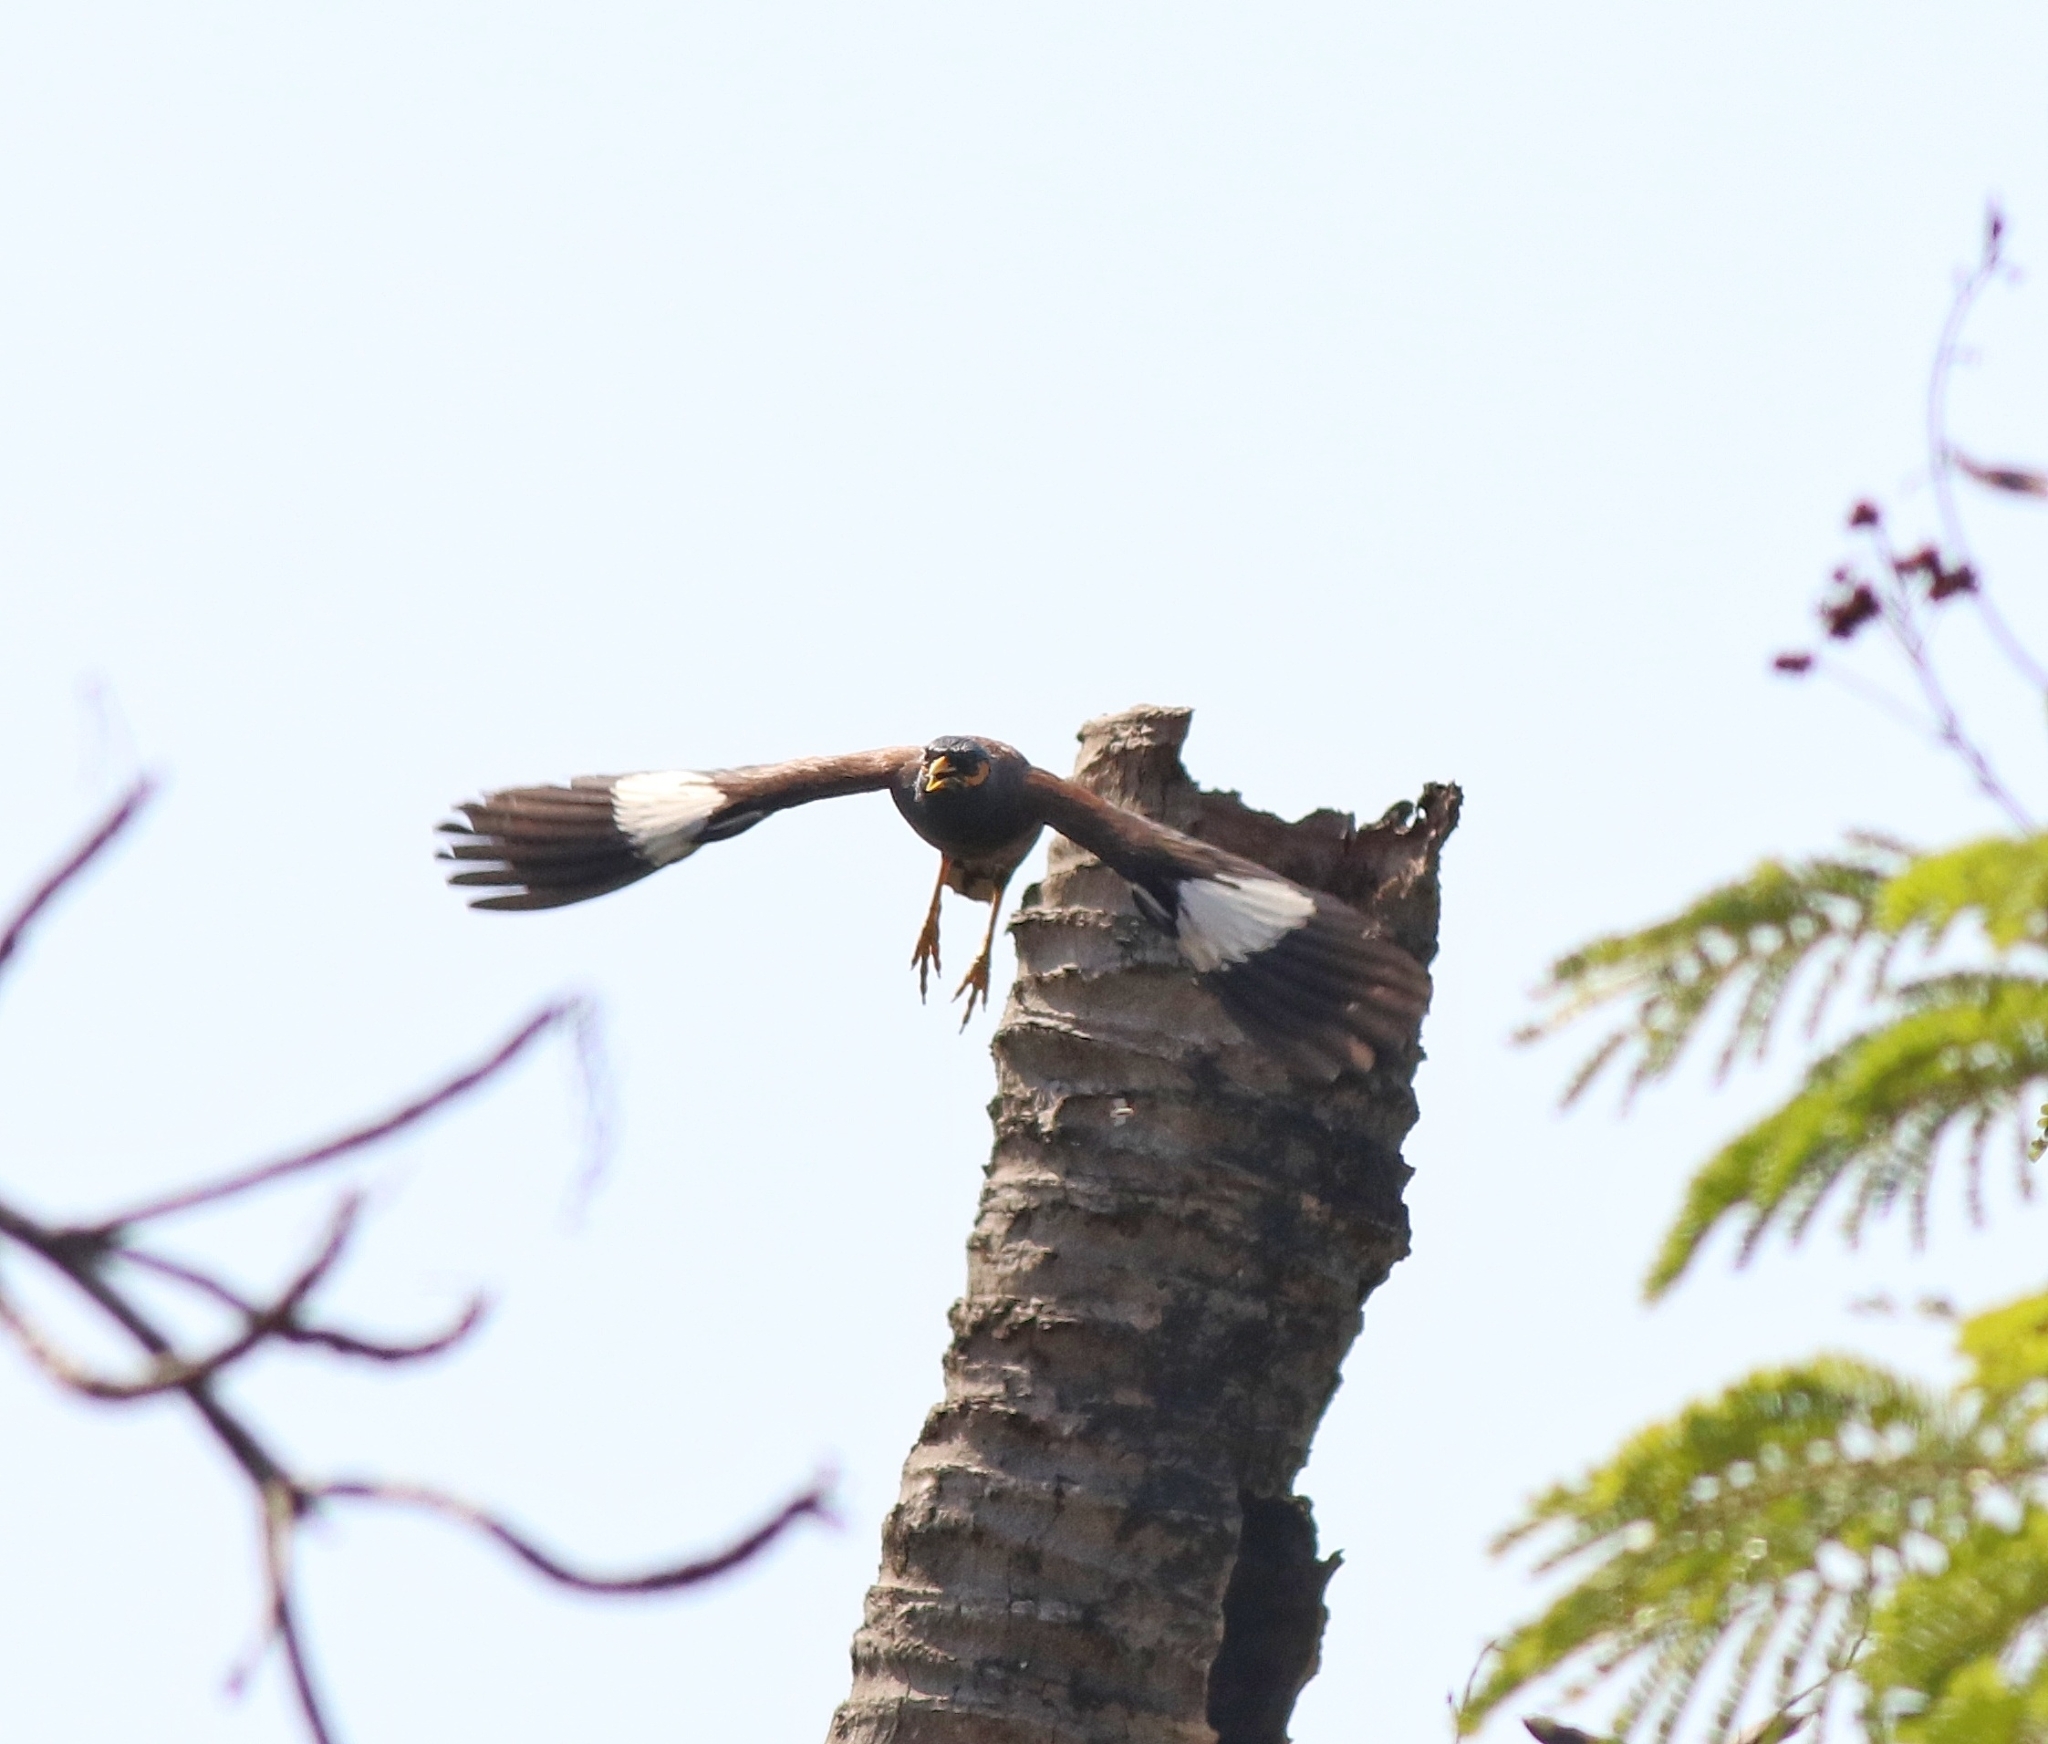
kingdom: Animalia
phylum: Chordata
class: Aves
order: Passeriformes
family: Sturnidae
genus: Acridotheres
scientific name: Acridotheres tristis
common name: Common myna
